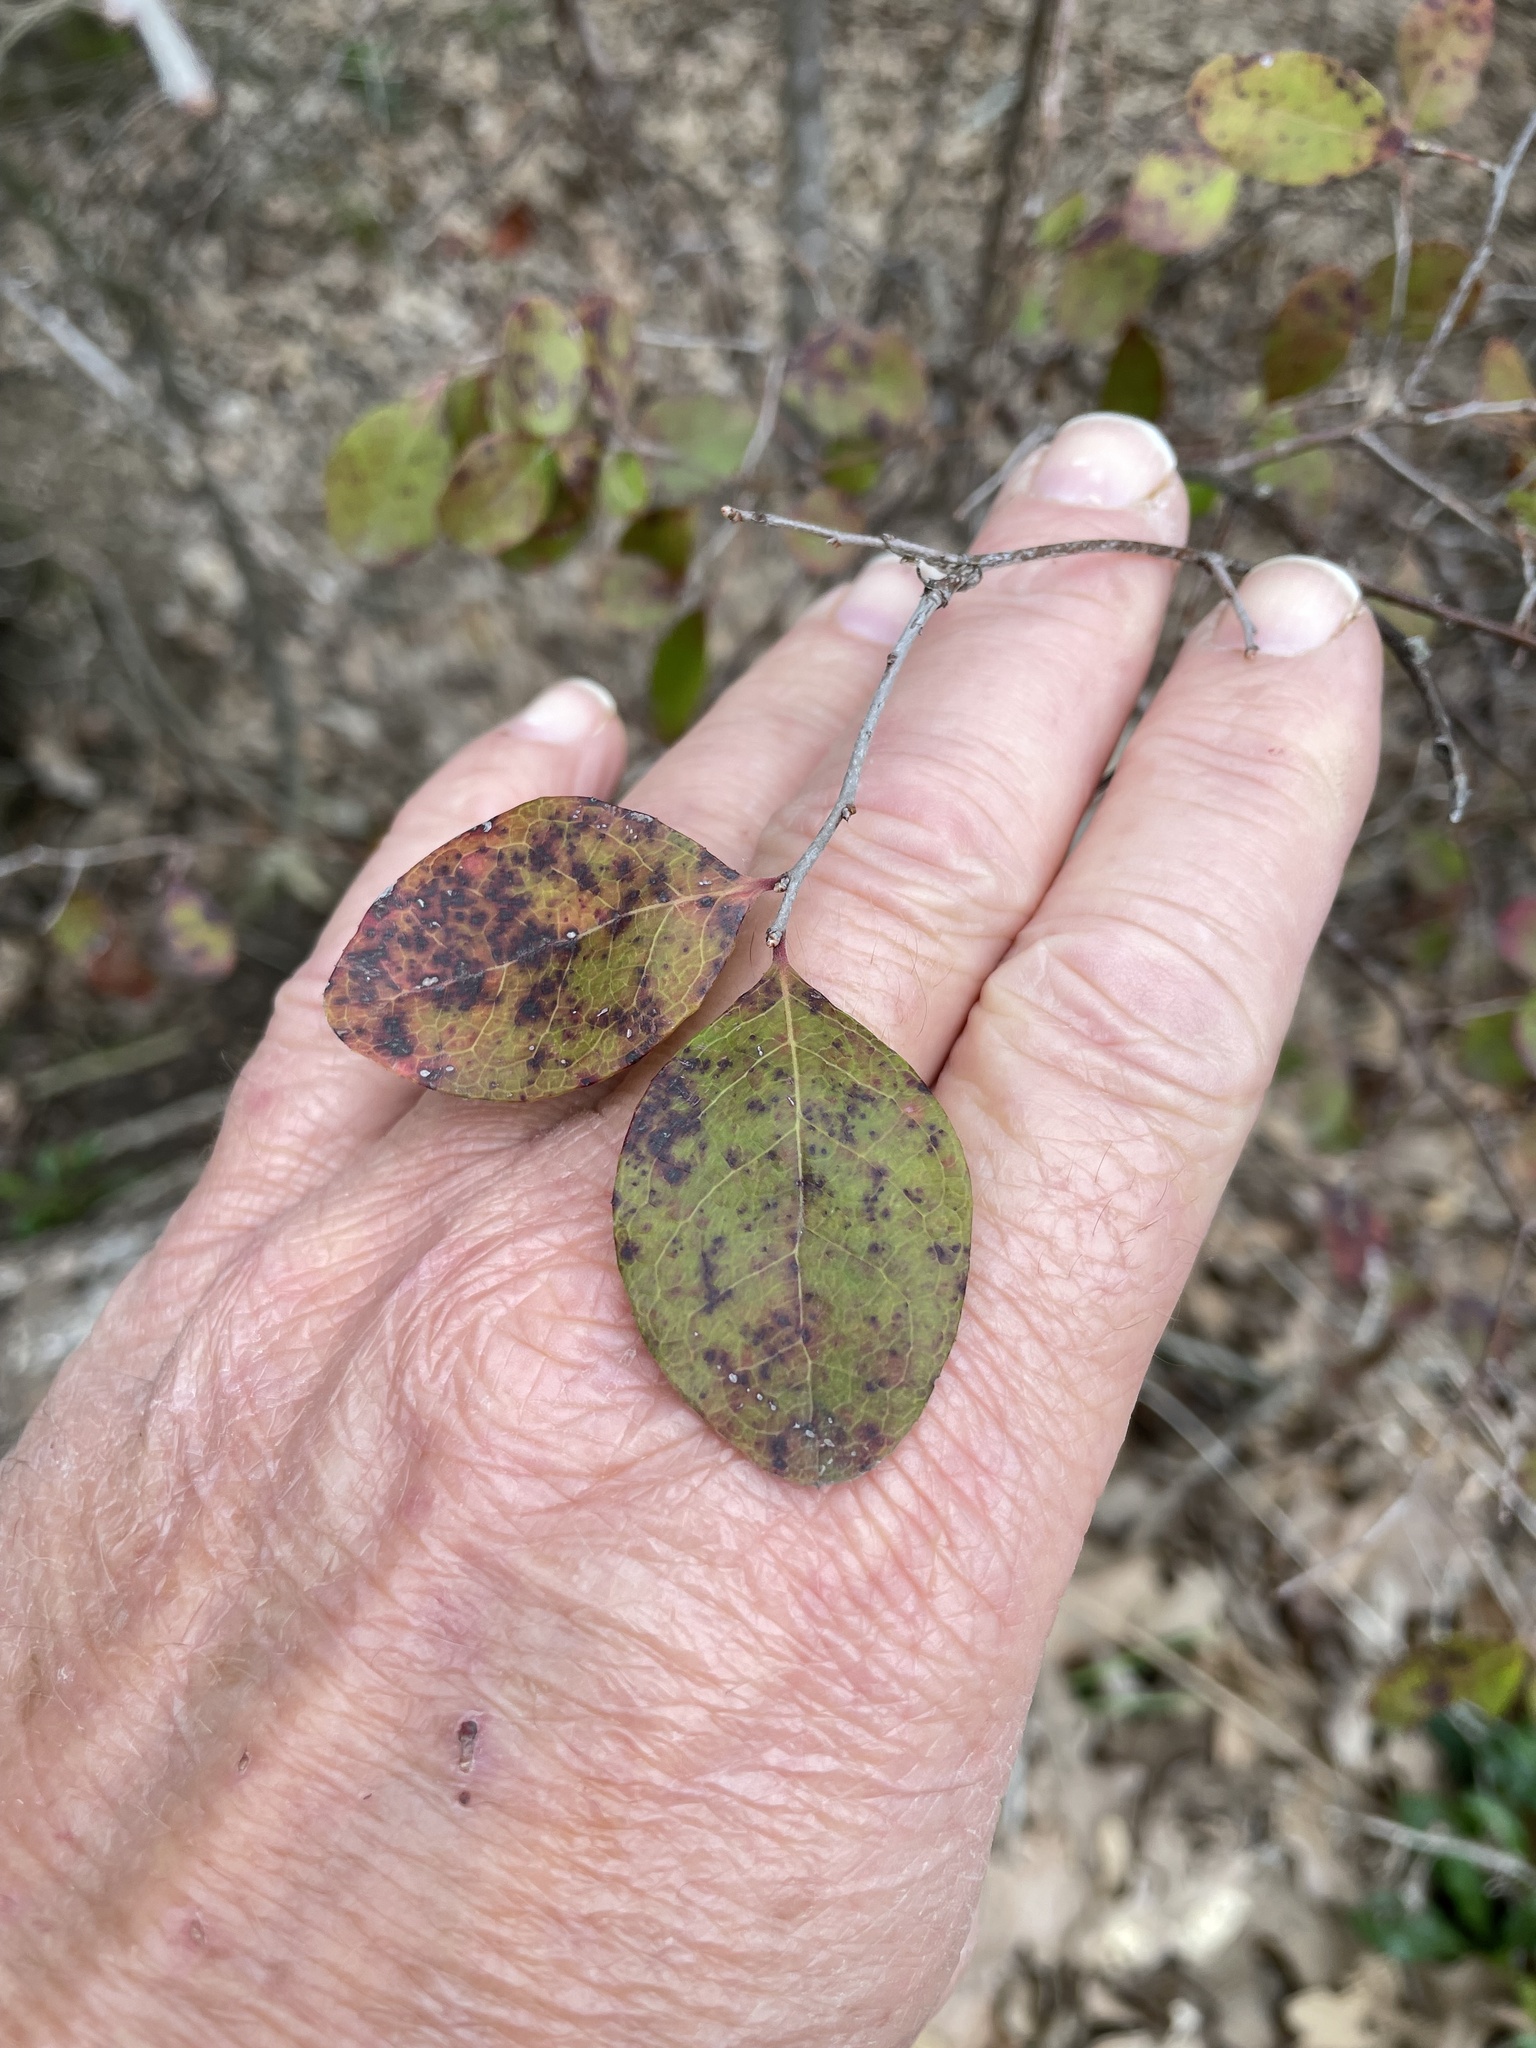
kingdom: Plantae
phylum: Tracheophyta
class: Magnoliopsida
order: Ericales
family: Ericaceae
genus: Vaccinium
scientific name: Vaccinium arboreum
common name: Farkleberry
